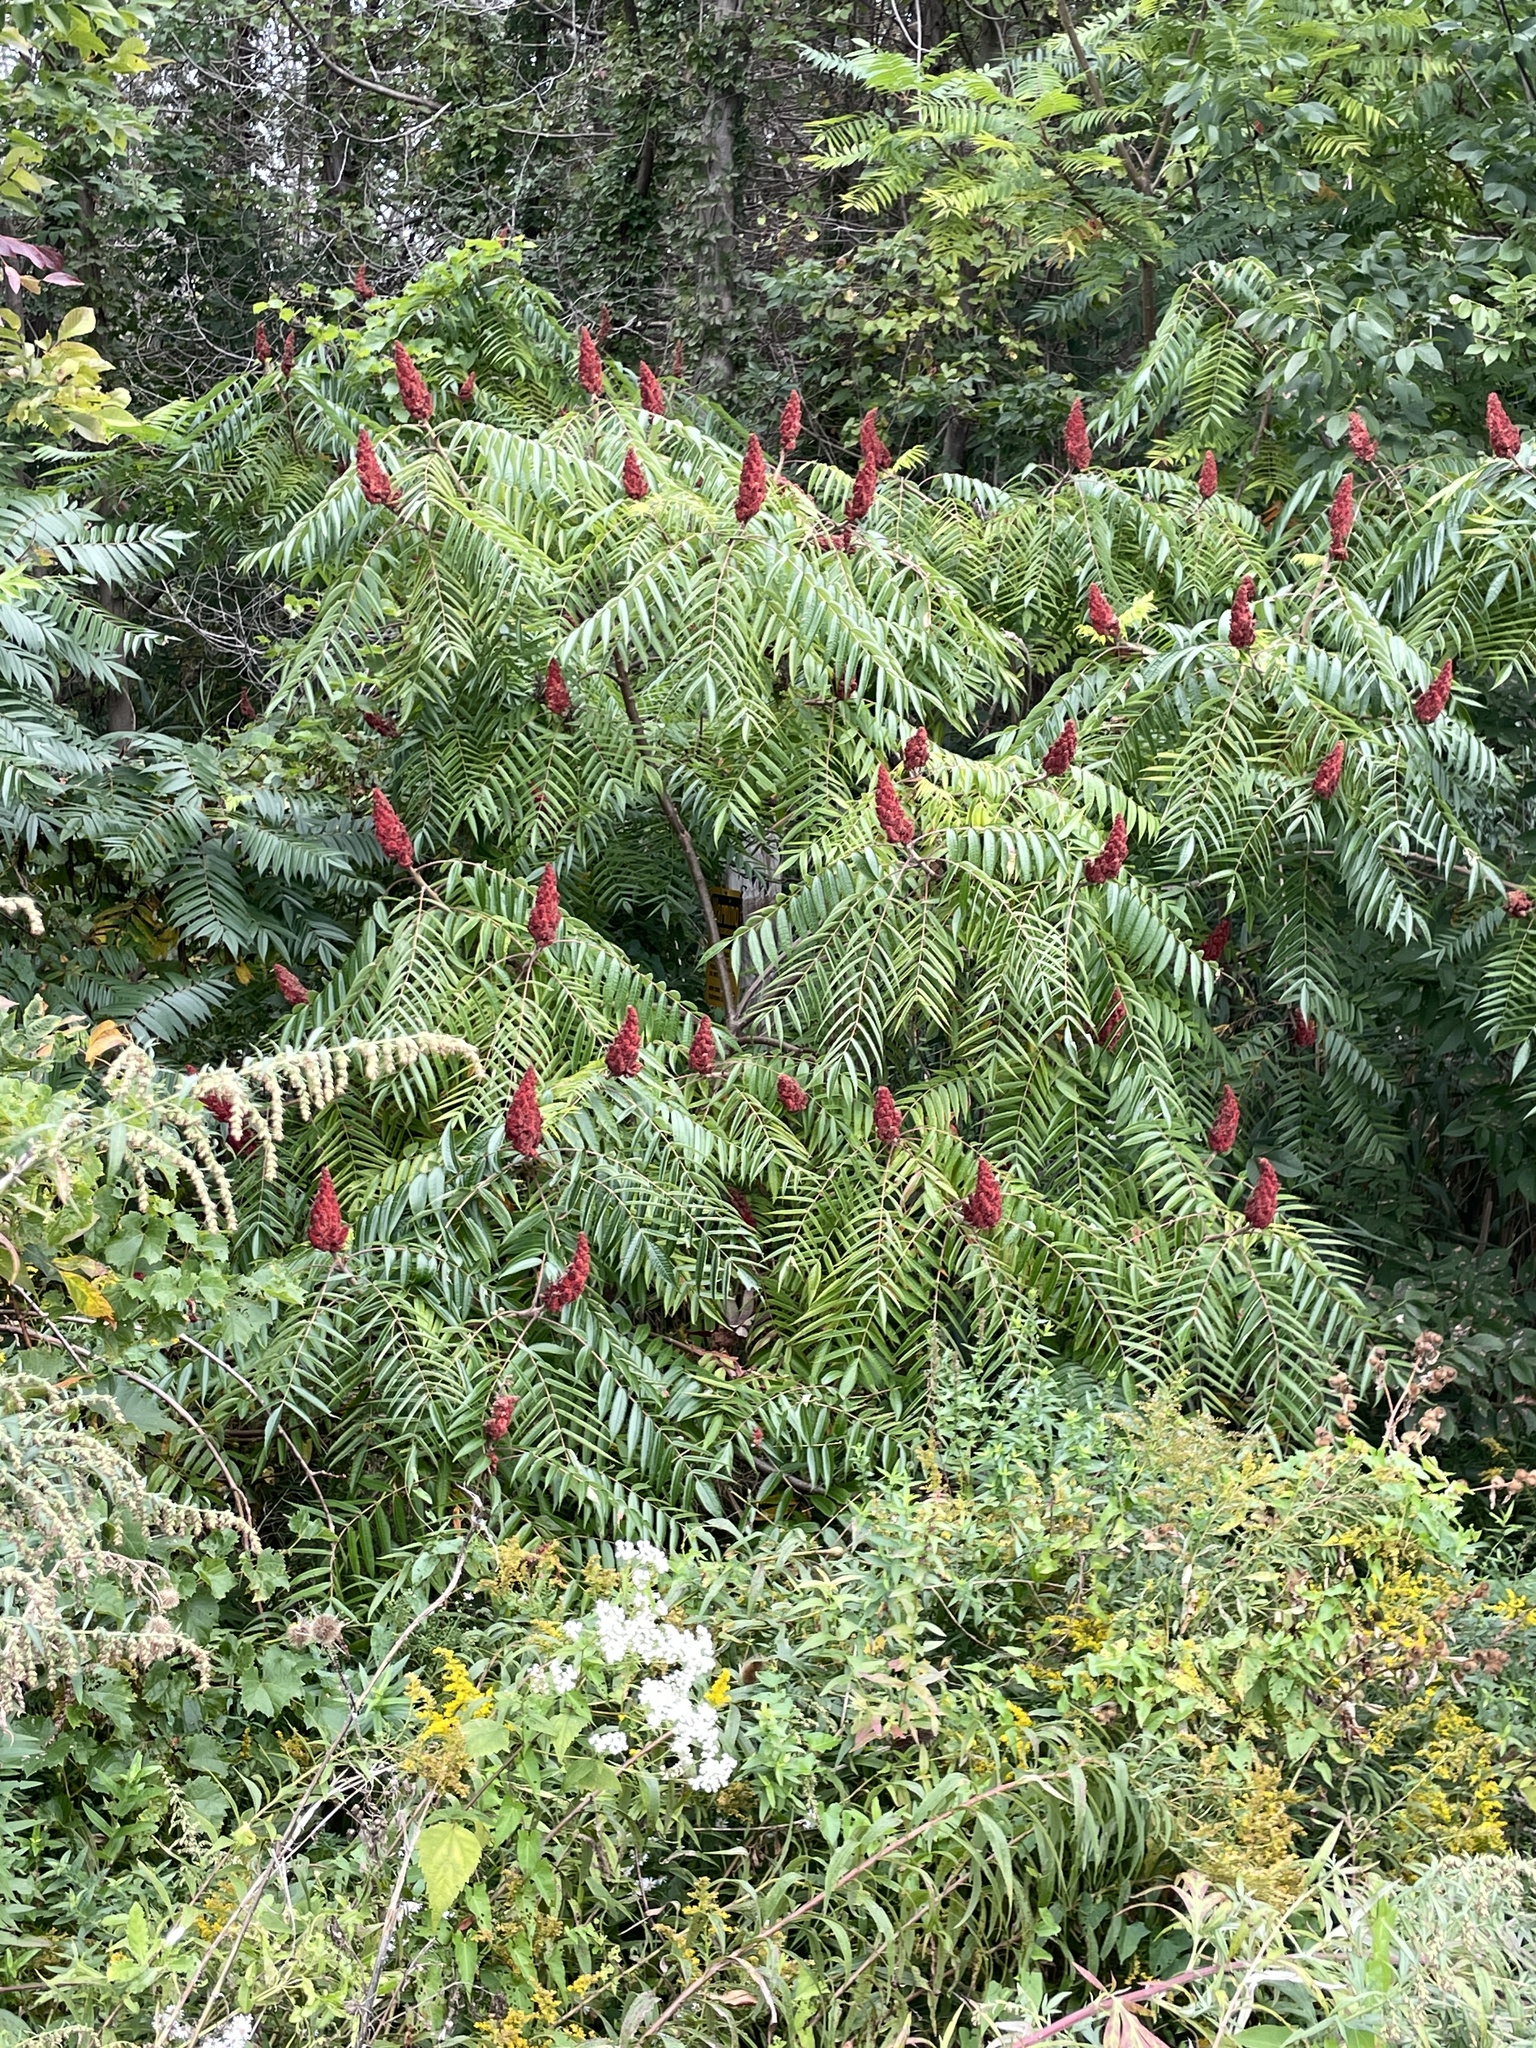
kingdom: Plantae
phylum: Tracheophyta
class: Magnoliopsida
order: Sapindales
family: Anacardiaceae
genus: Rhus
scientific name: Rhus typhina
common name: Staghorn sumac
